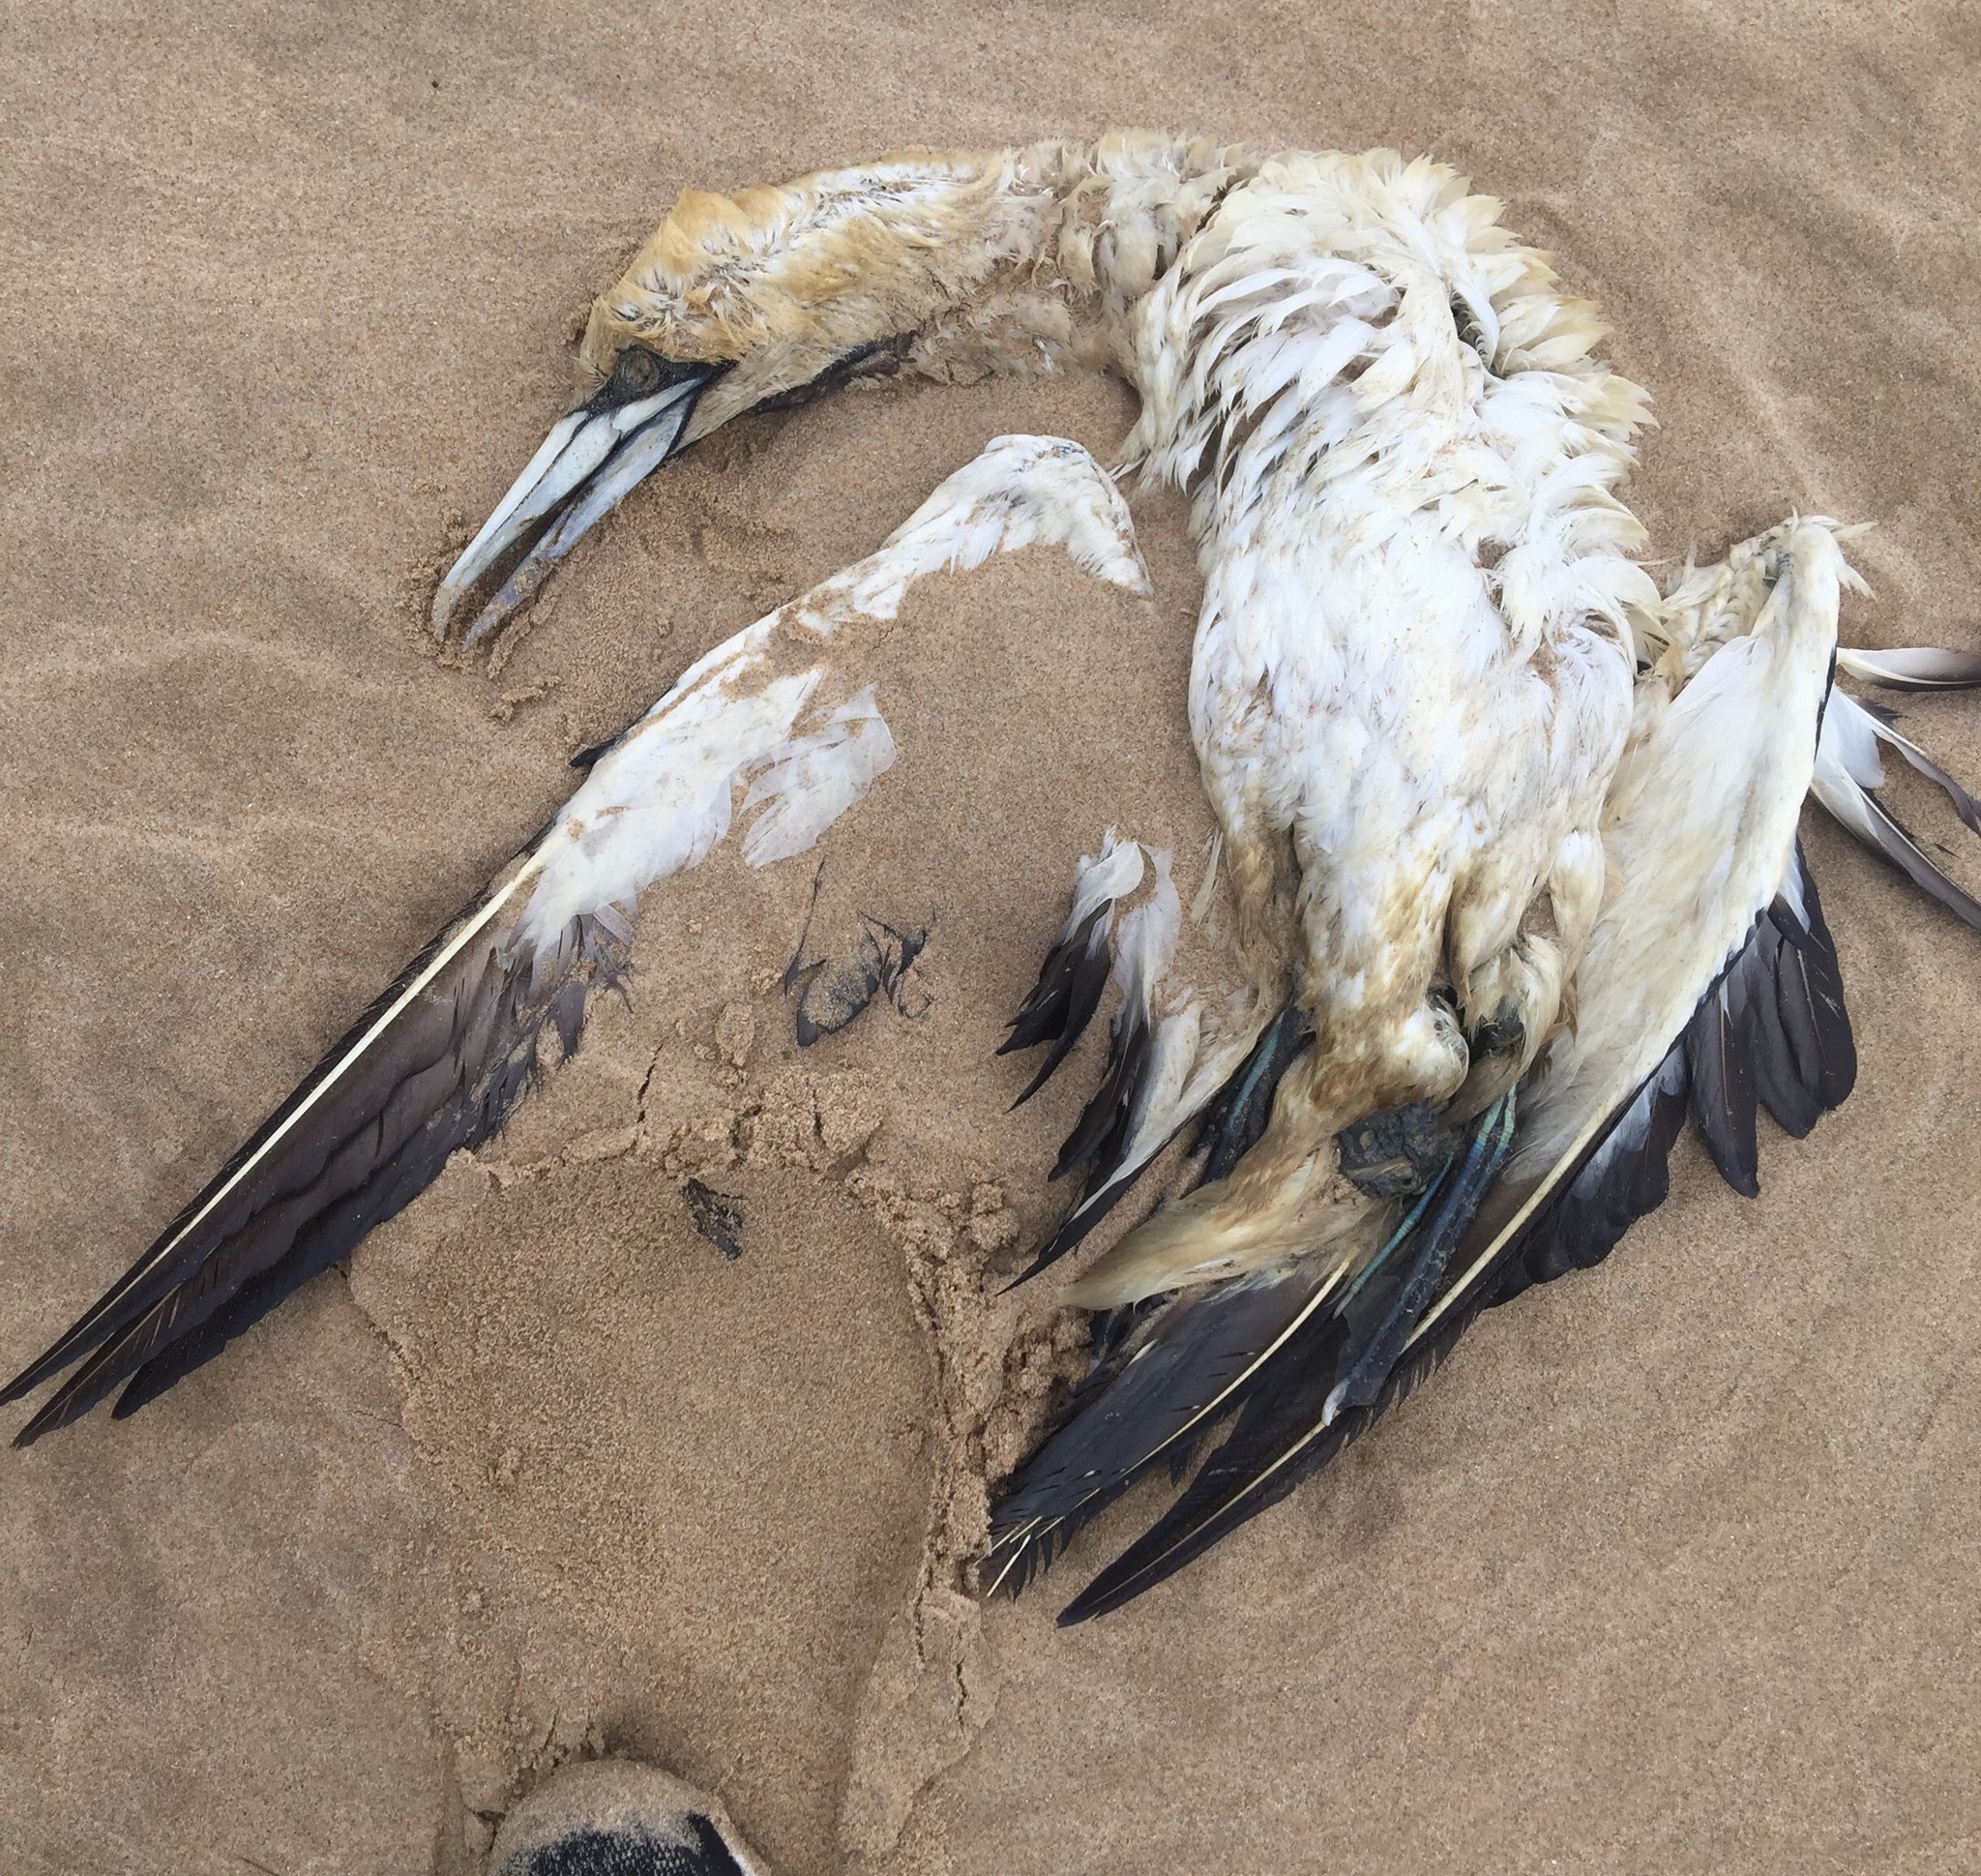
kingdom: Animalia
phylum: Chordata
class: Aves
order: Suliformes
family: Sulidae
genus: Morus
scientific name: Morus capensis
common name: Cape gannet
